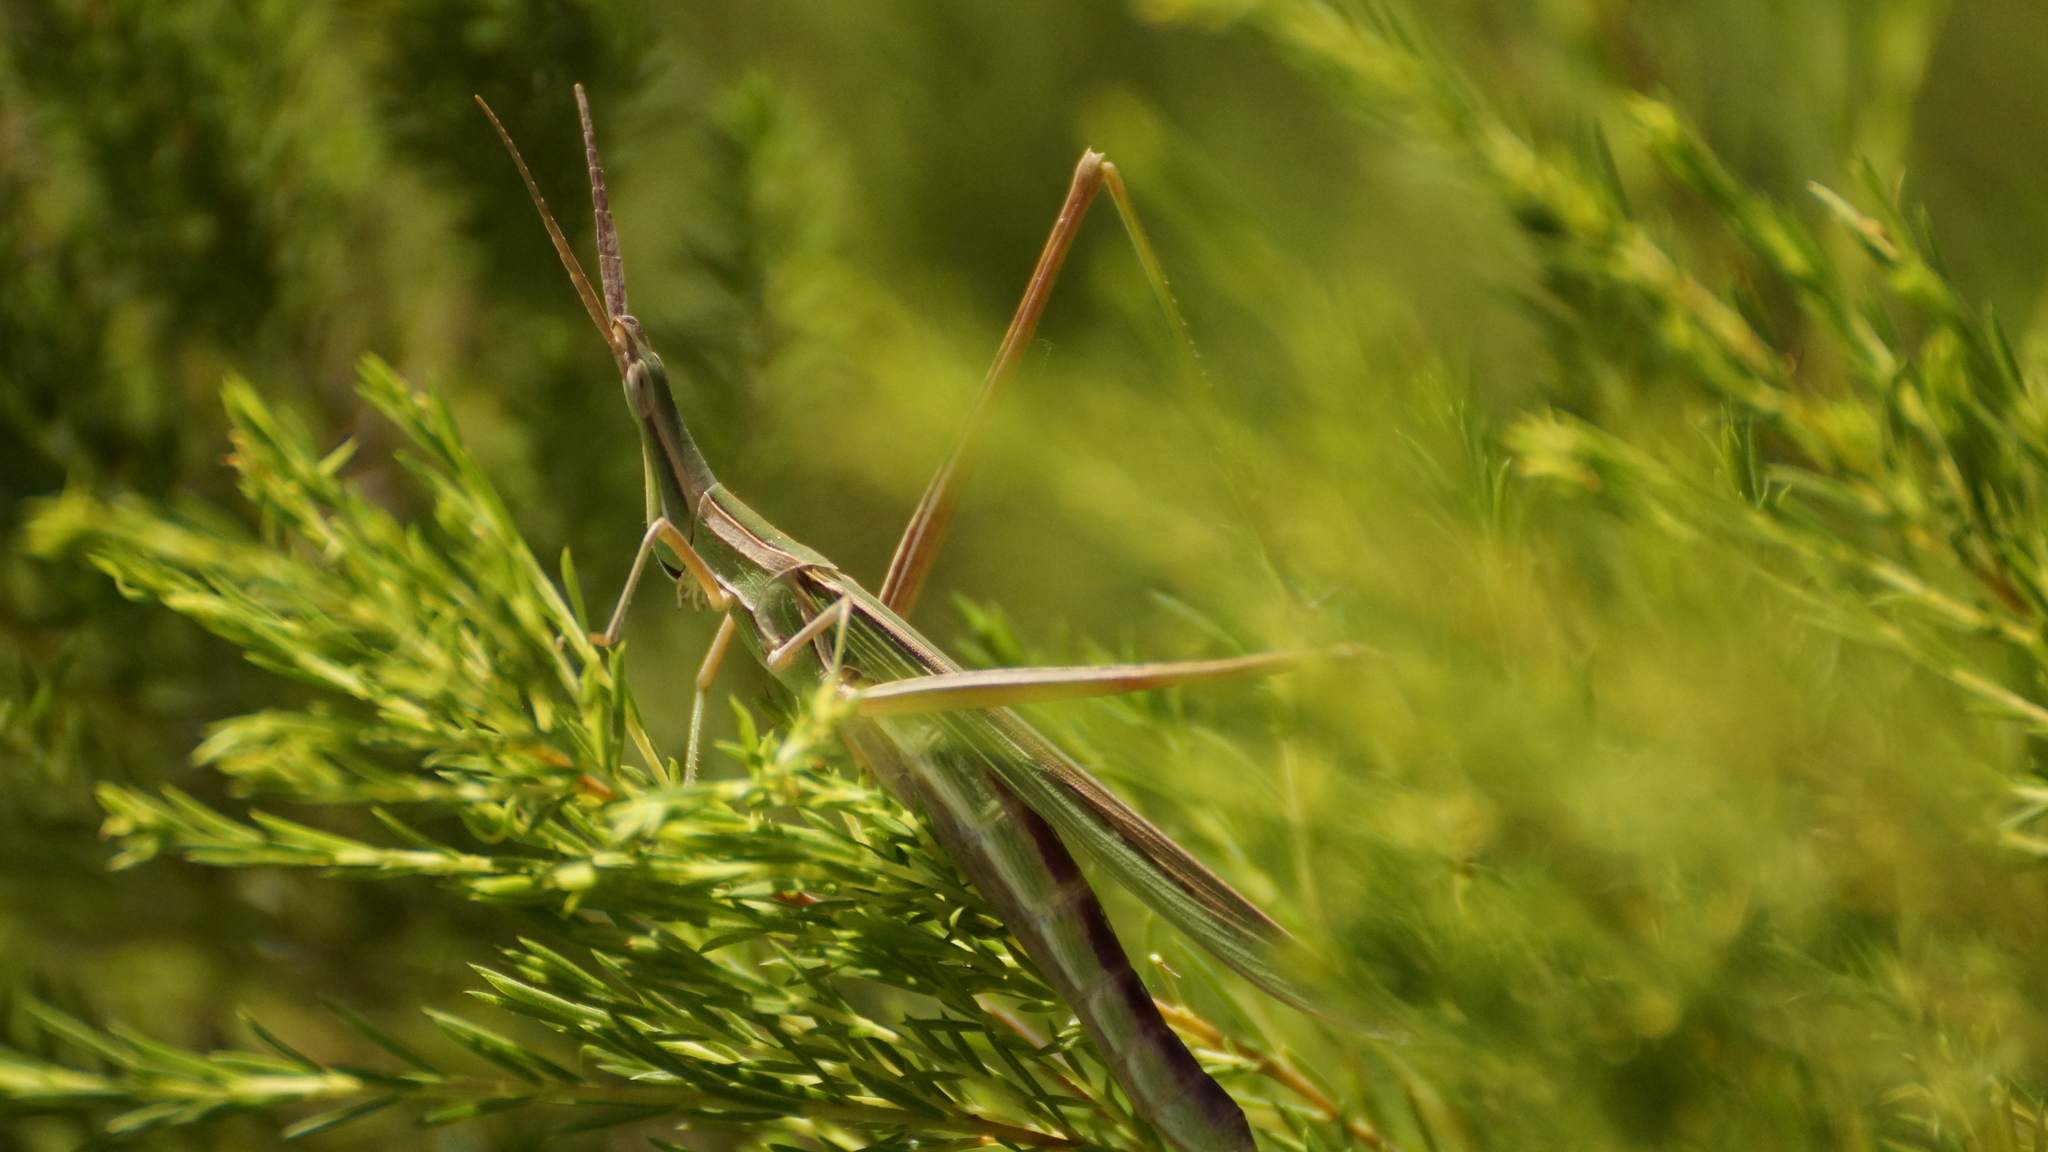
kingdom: Animalia
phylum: Arthropoda
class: Insecta
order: Orthoptera
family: Acrididae
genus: Acrida
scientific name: Acrida conica
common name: Giant green slantface
